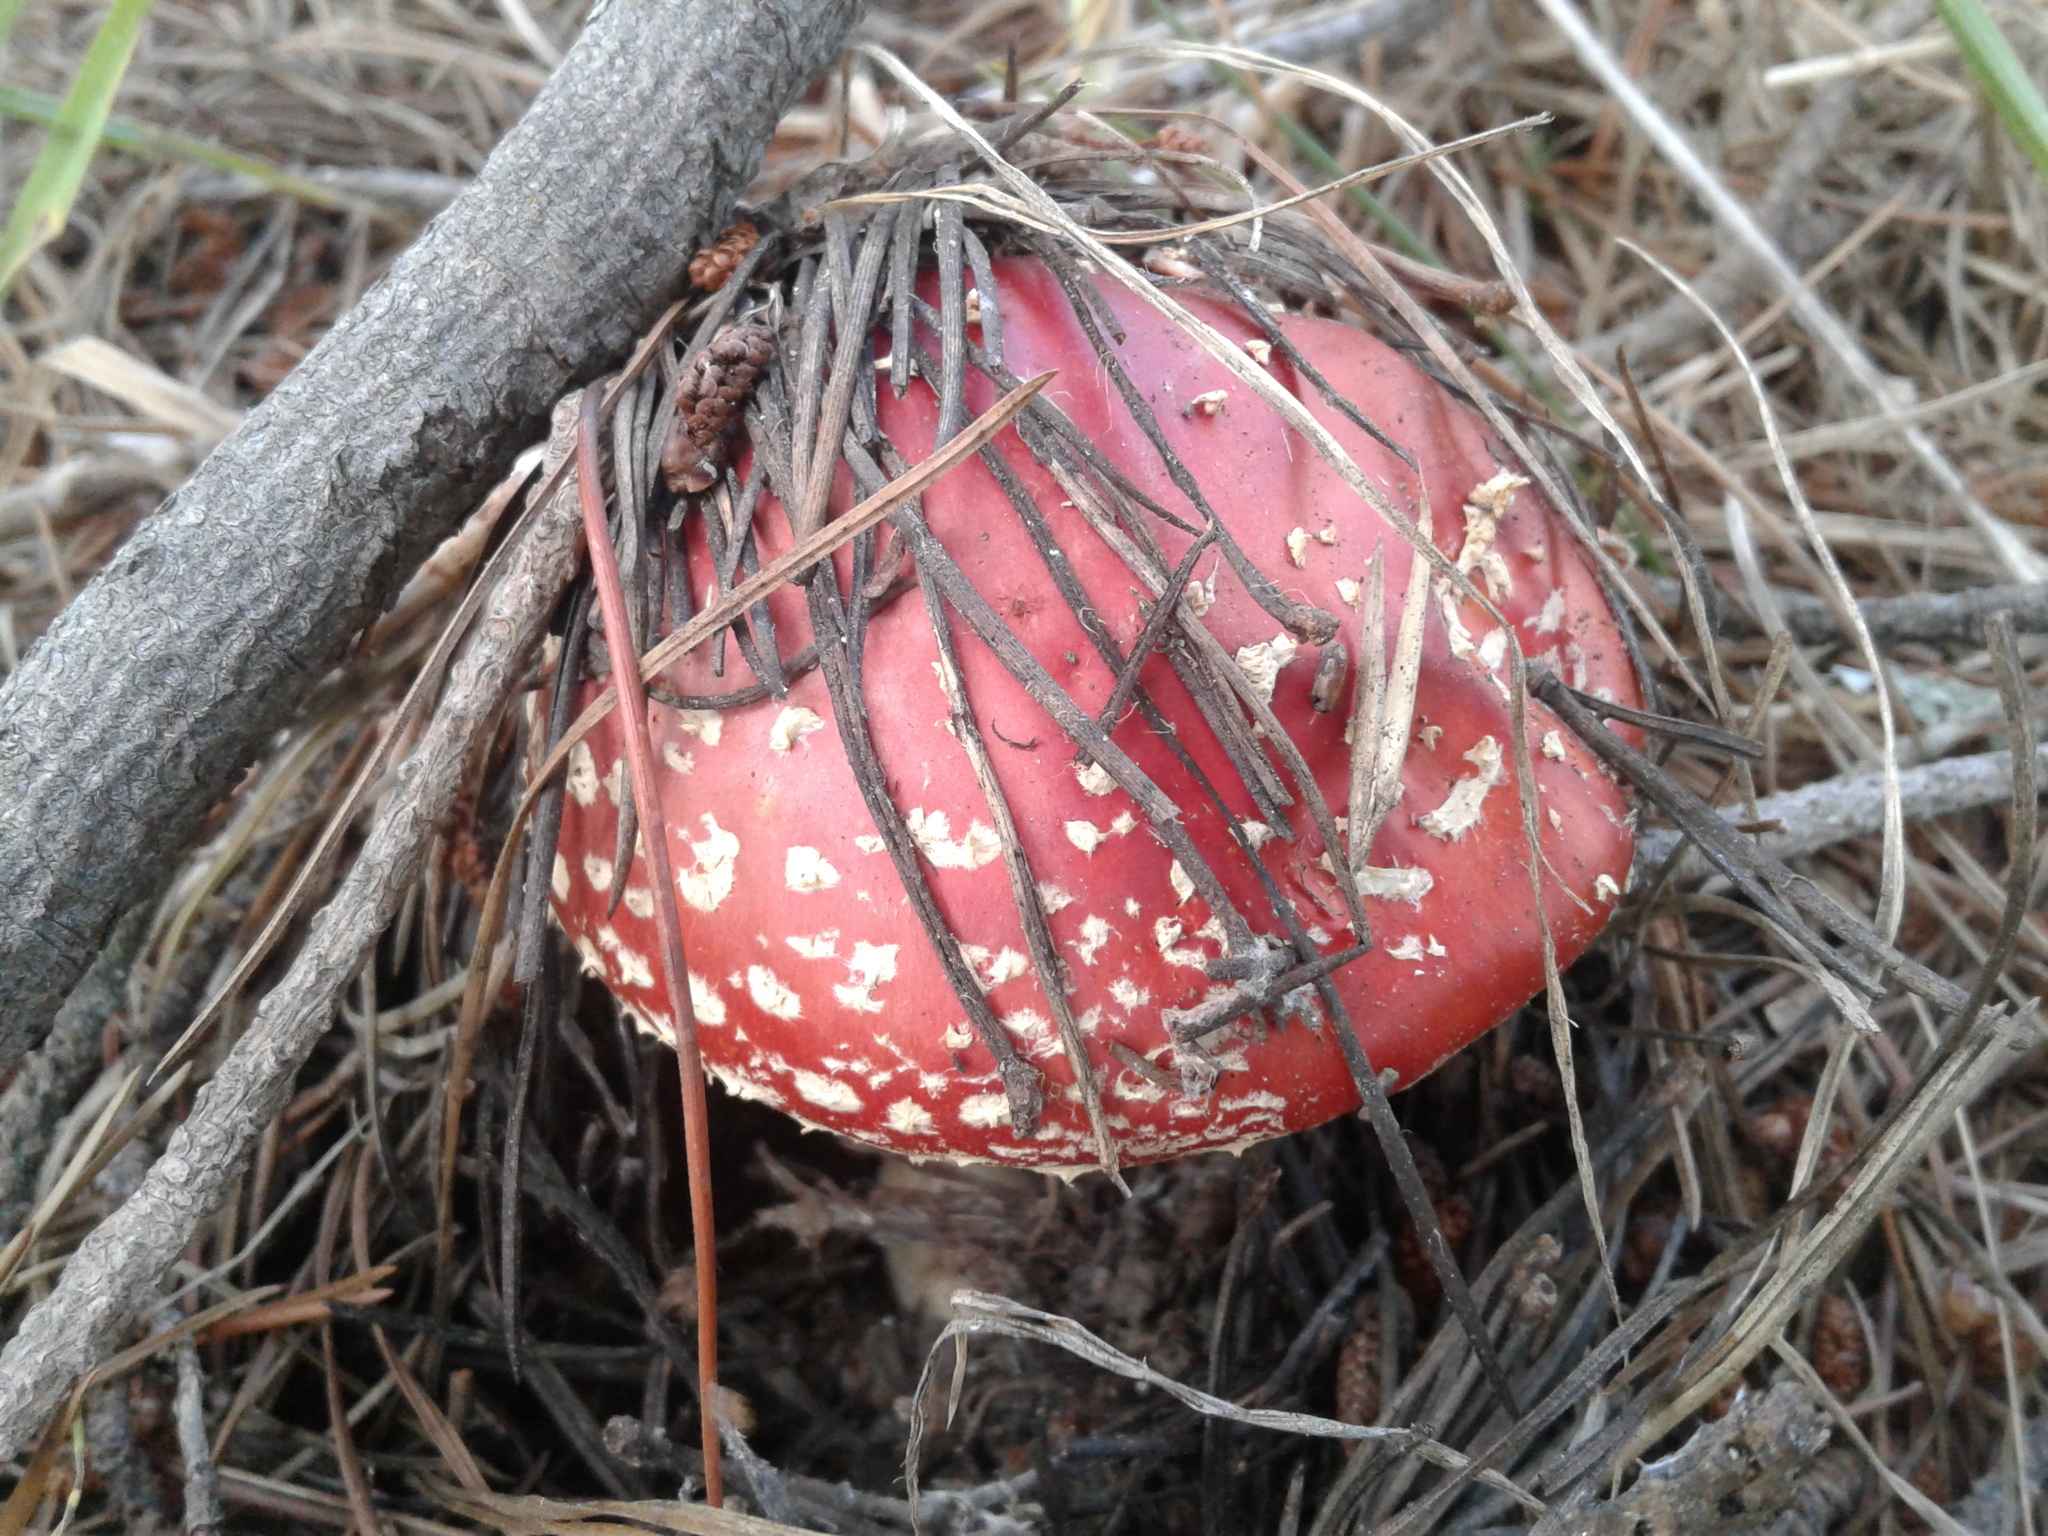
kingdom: Fungi
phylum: Basidiomycota
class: Agaricomycetes
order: Agaricales
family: Amanitaceae
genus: Amanita
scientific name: Amanita muscaria
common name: Fly agaric
